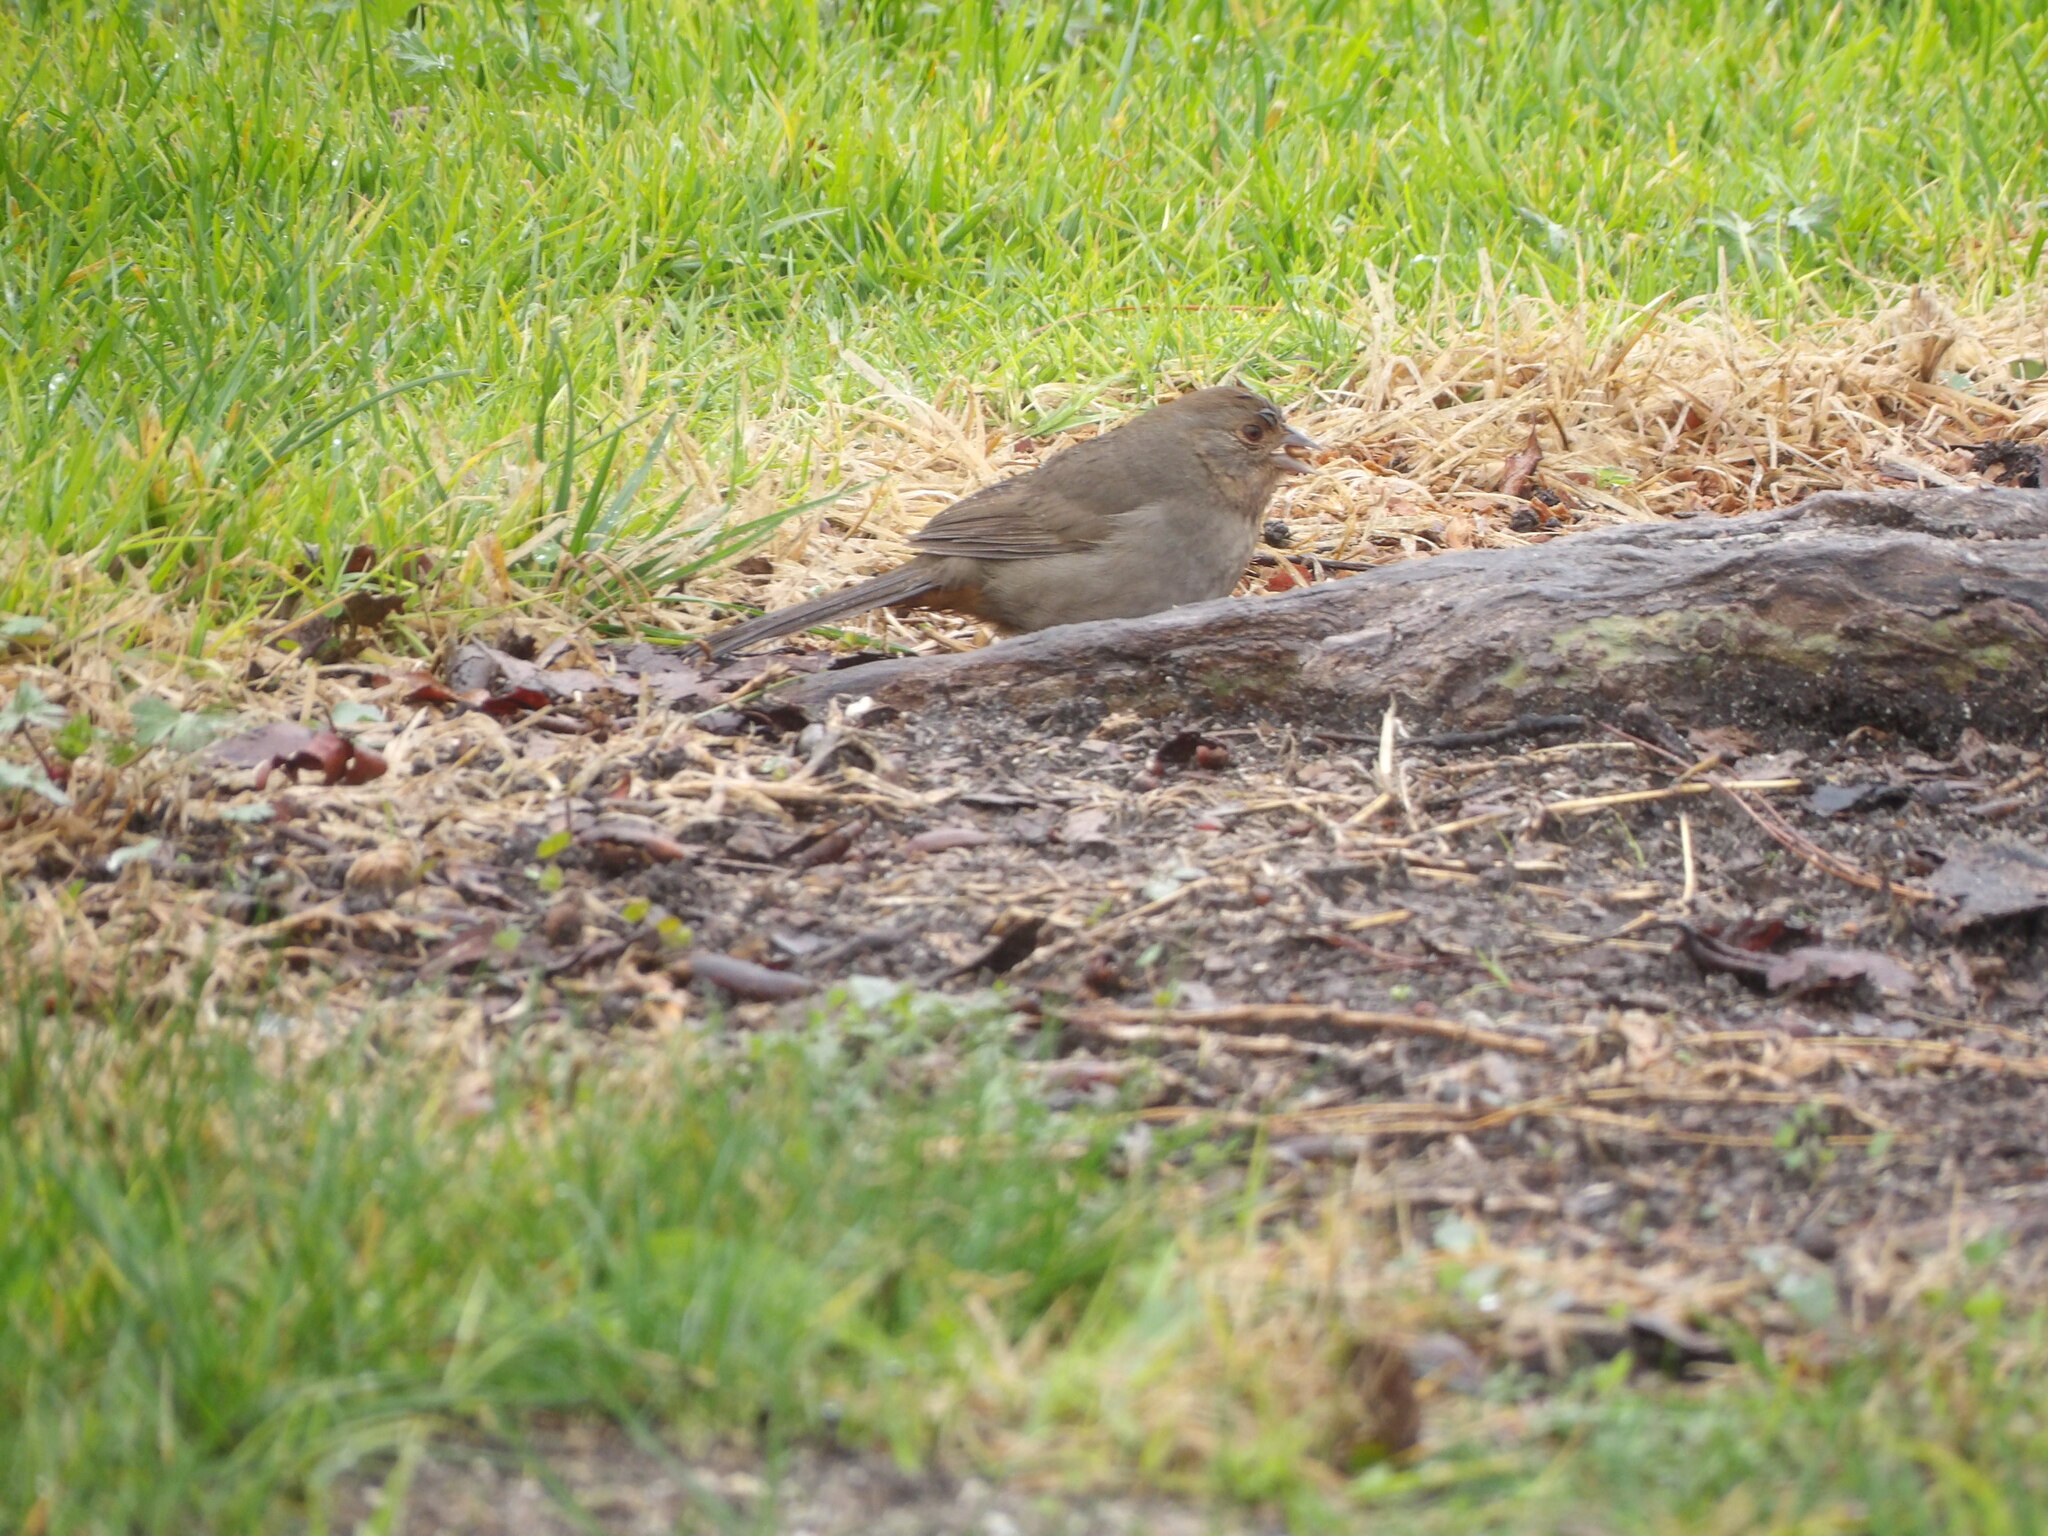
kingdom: Animalia
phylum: Chordata
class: Aves
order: Passeriformes
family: Passerellidae
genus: Melozone
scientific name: Melozone crissalis
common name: California towhee
